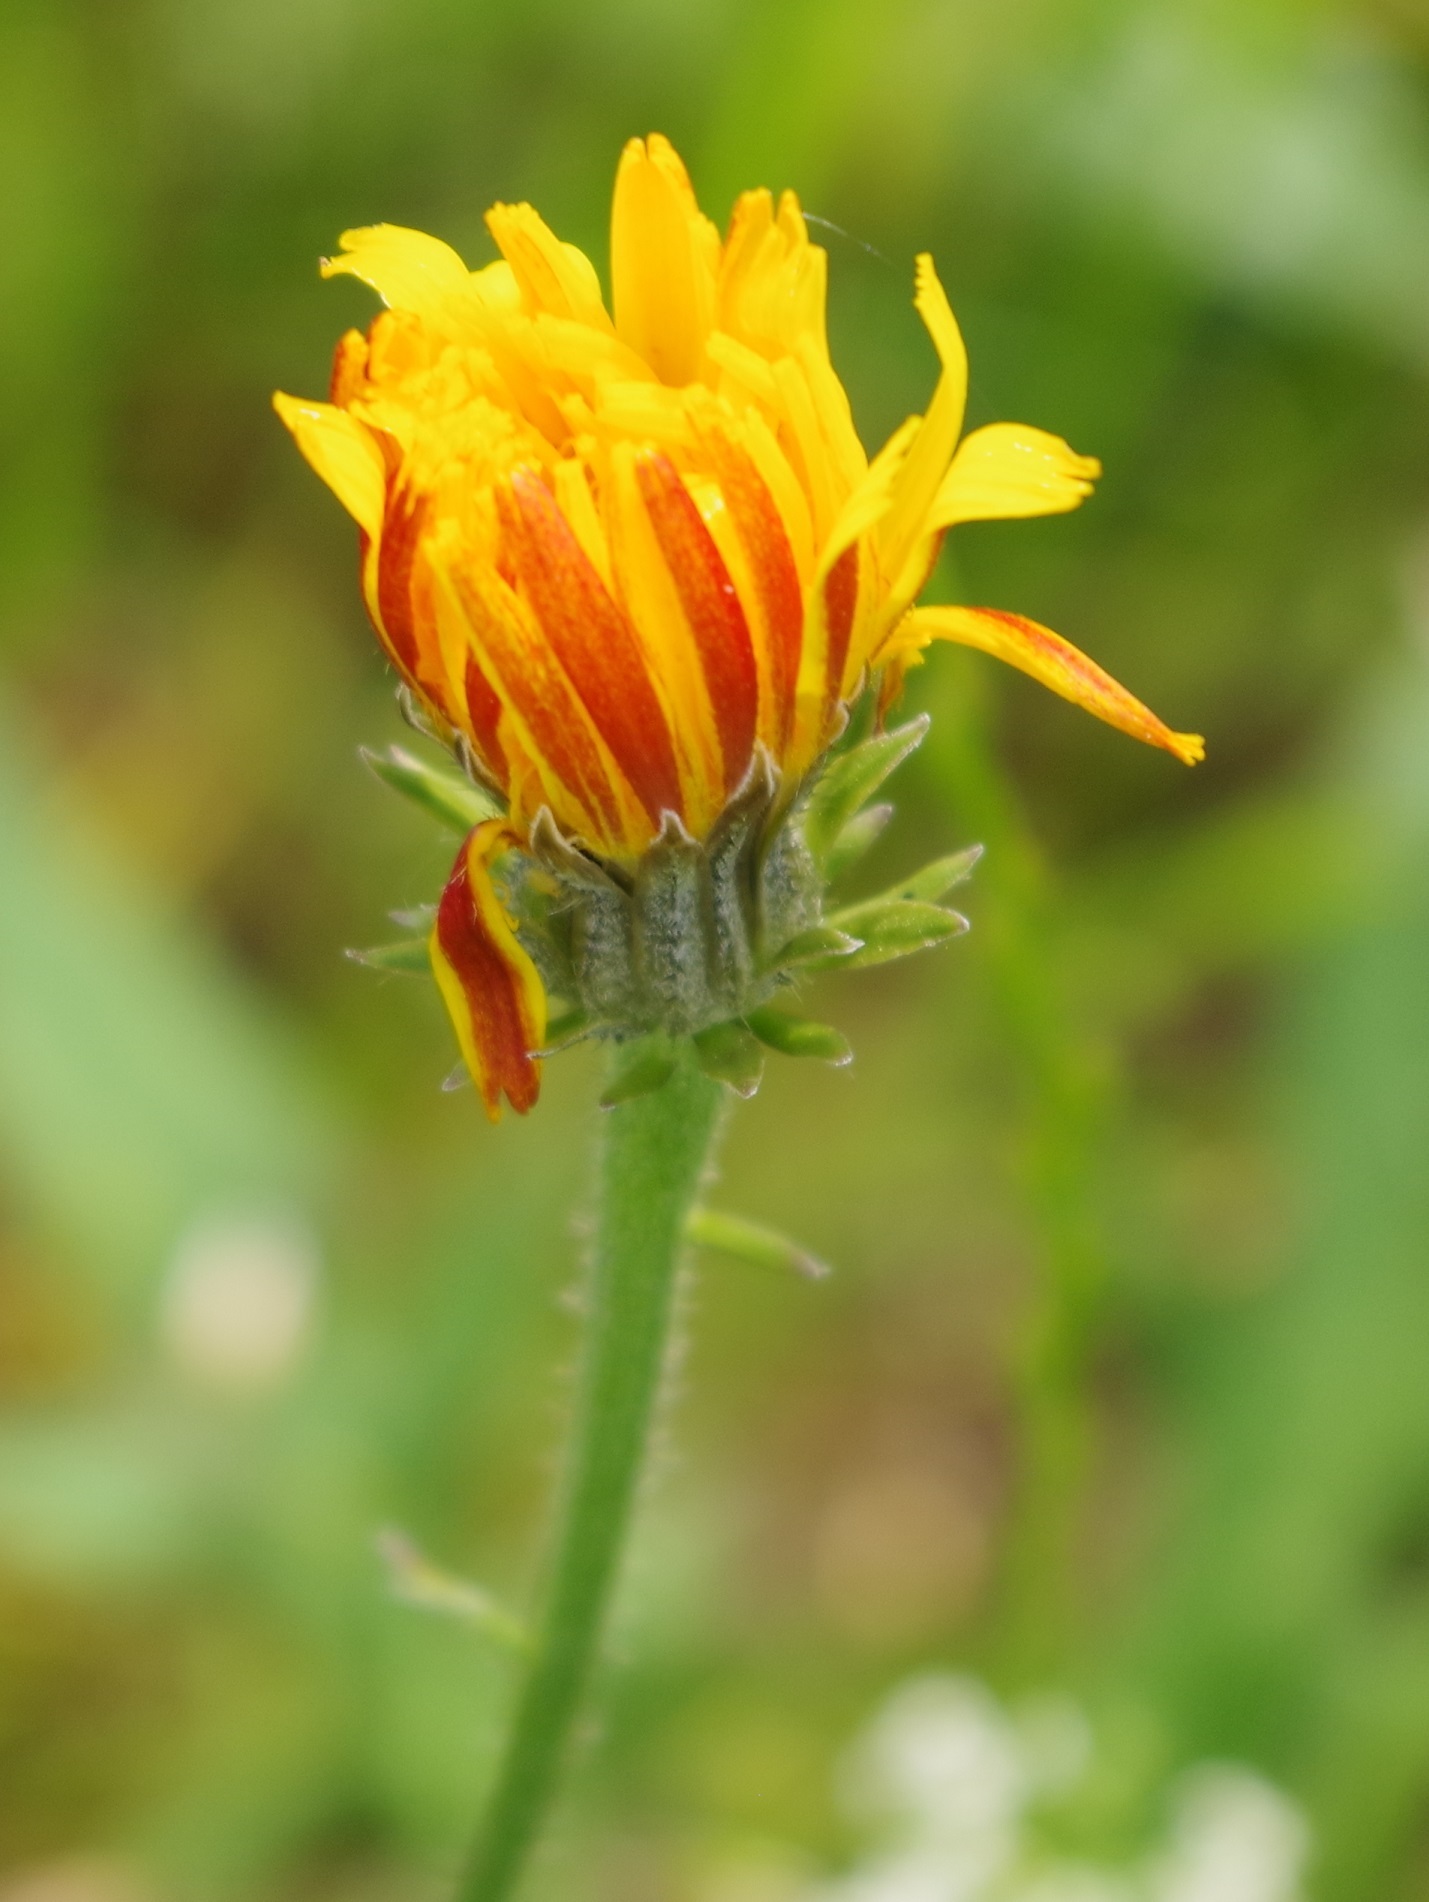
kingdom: Plantae
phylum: Tracheophyta
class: Magnoliopsida
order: Asterales
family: Asteraceae
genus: Picris
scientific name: Picris hieracioides
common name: Hawkweed oxtongue
